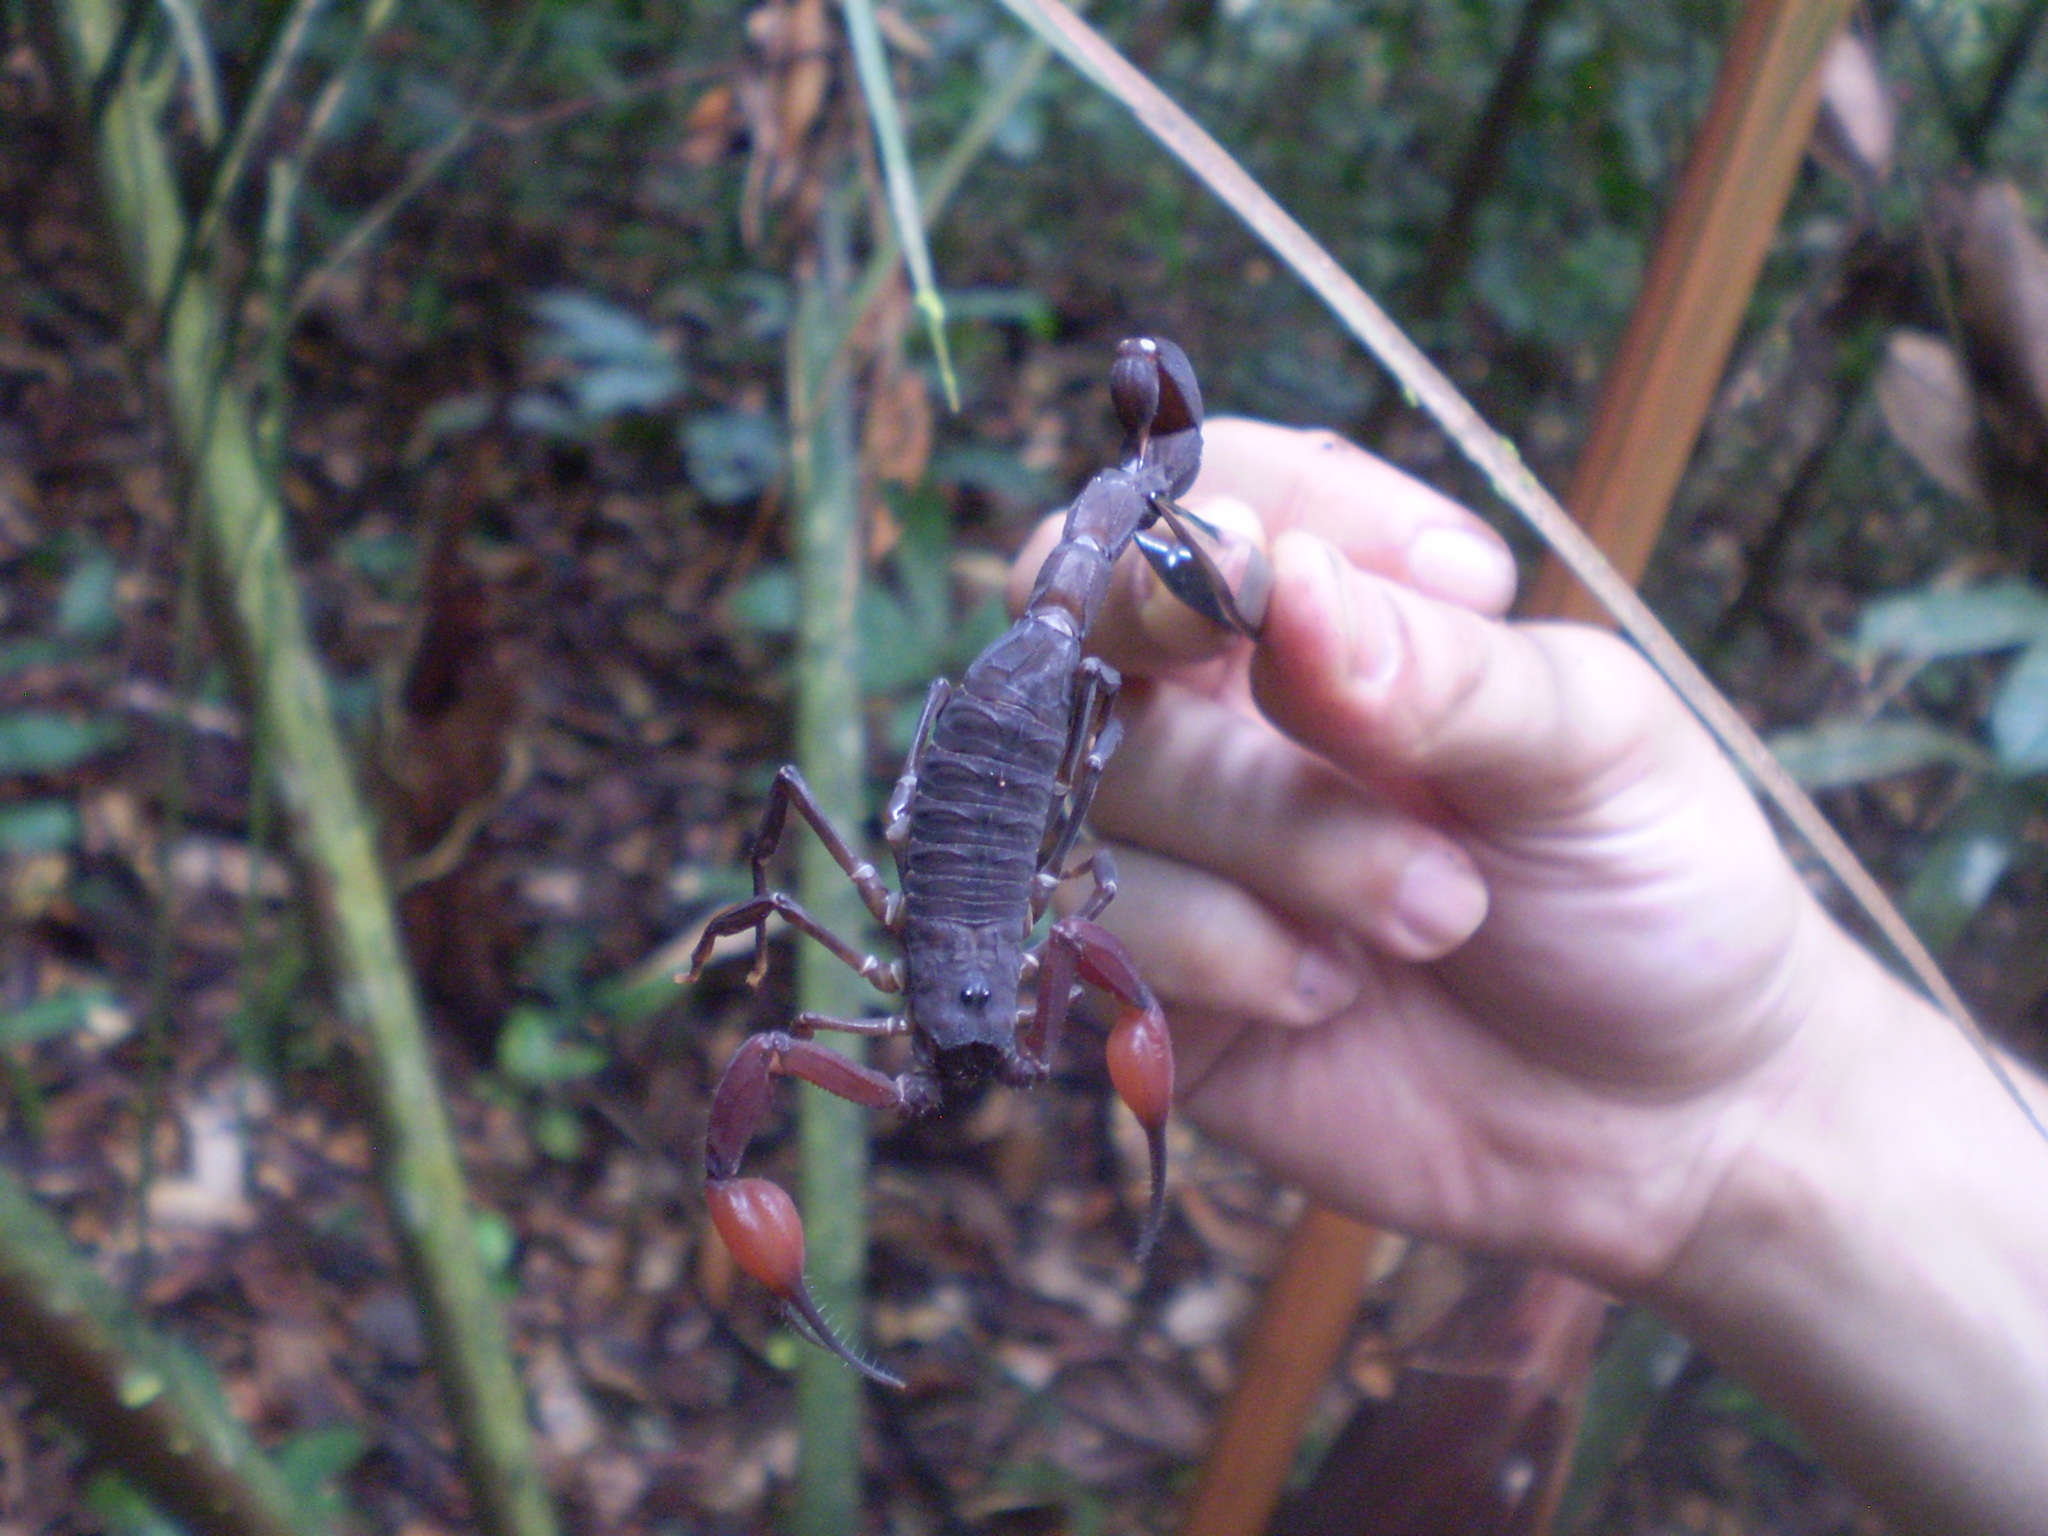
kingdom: Animalia
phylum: Arthropoda
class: Arachnida
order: Scorpiones
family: Buthidae
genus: Tityus
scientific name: Tityus metuendus
